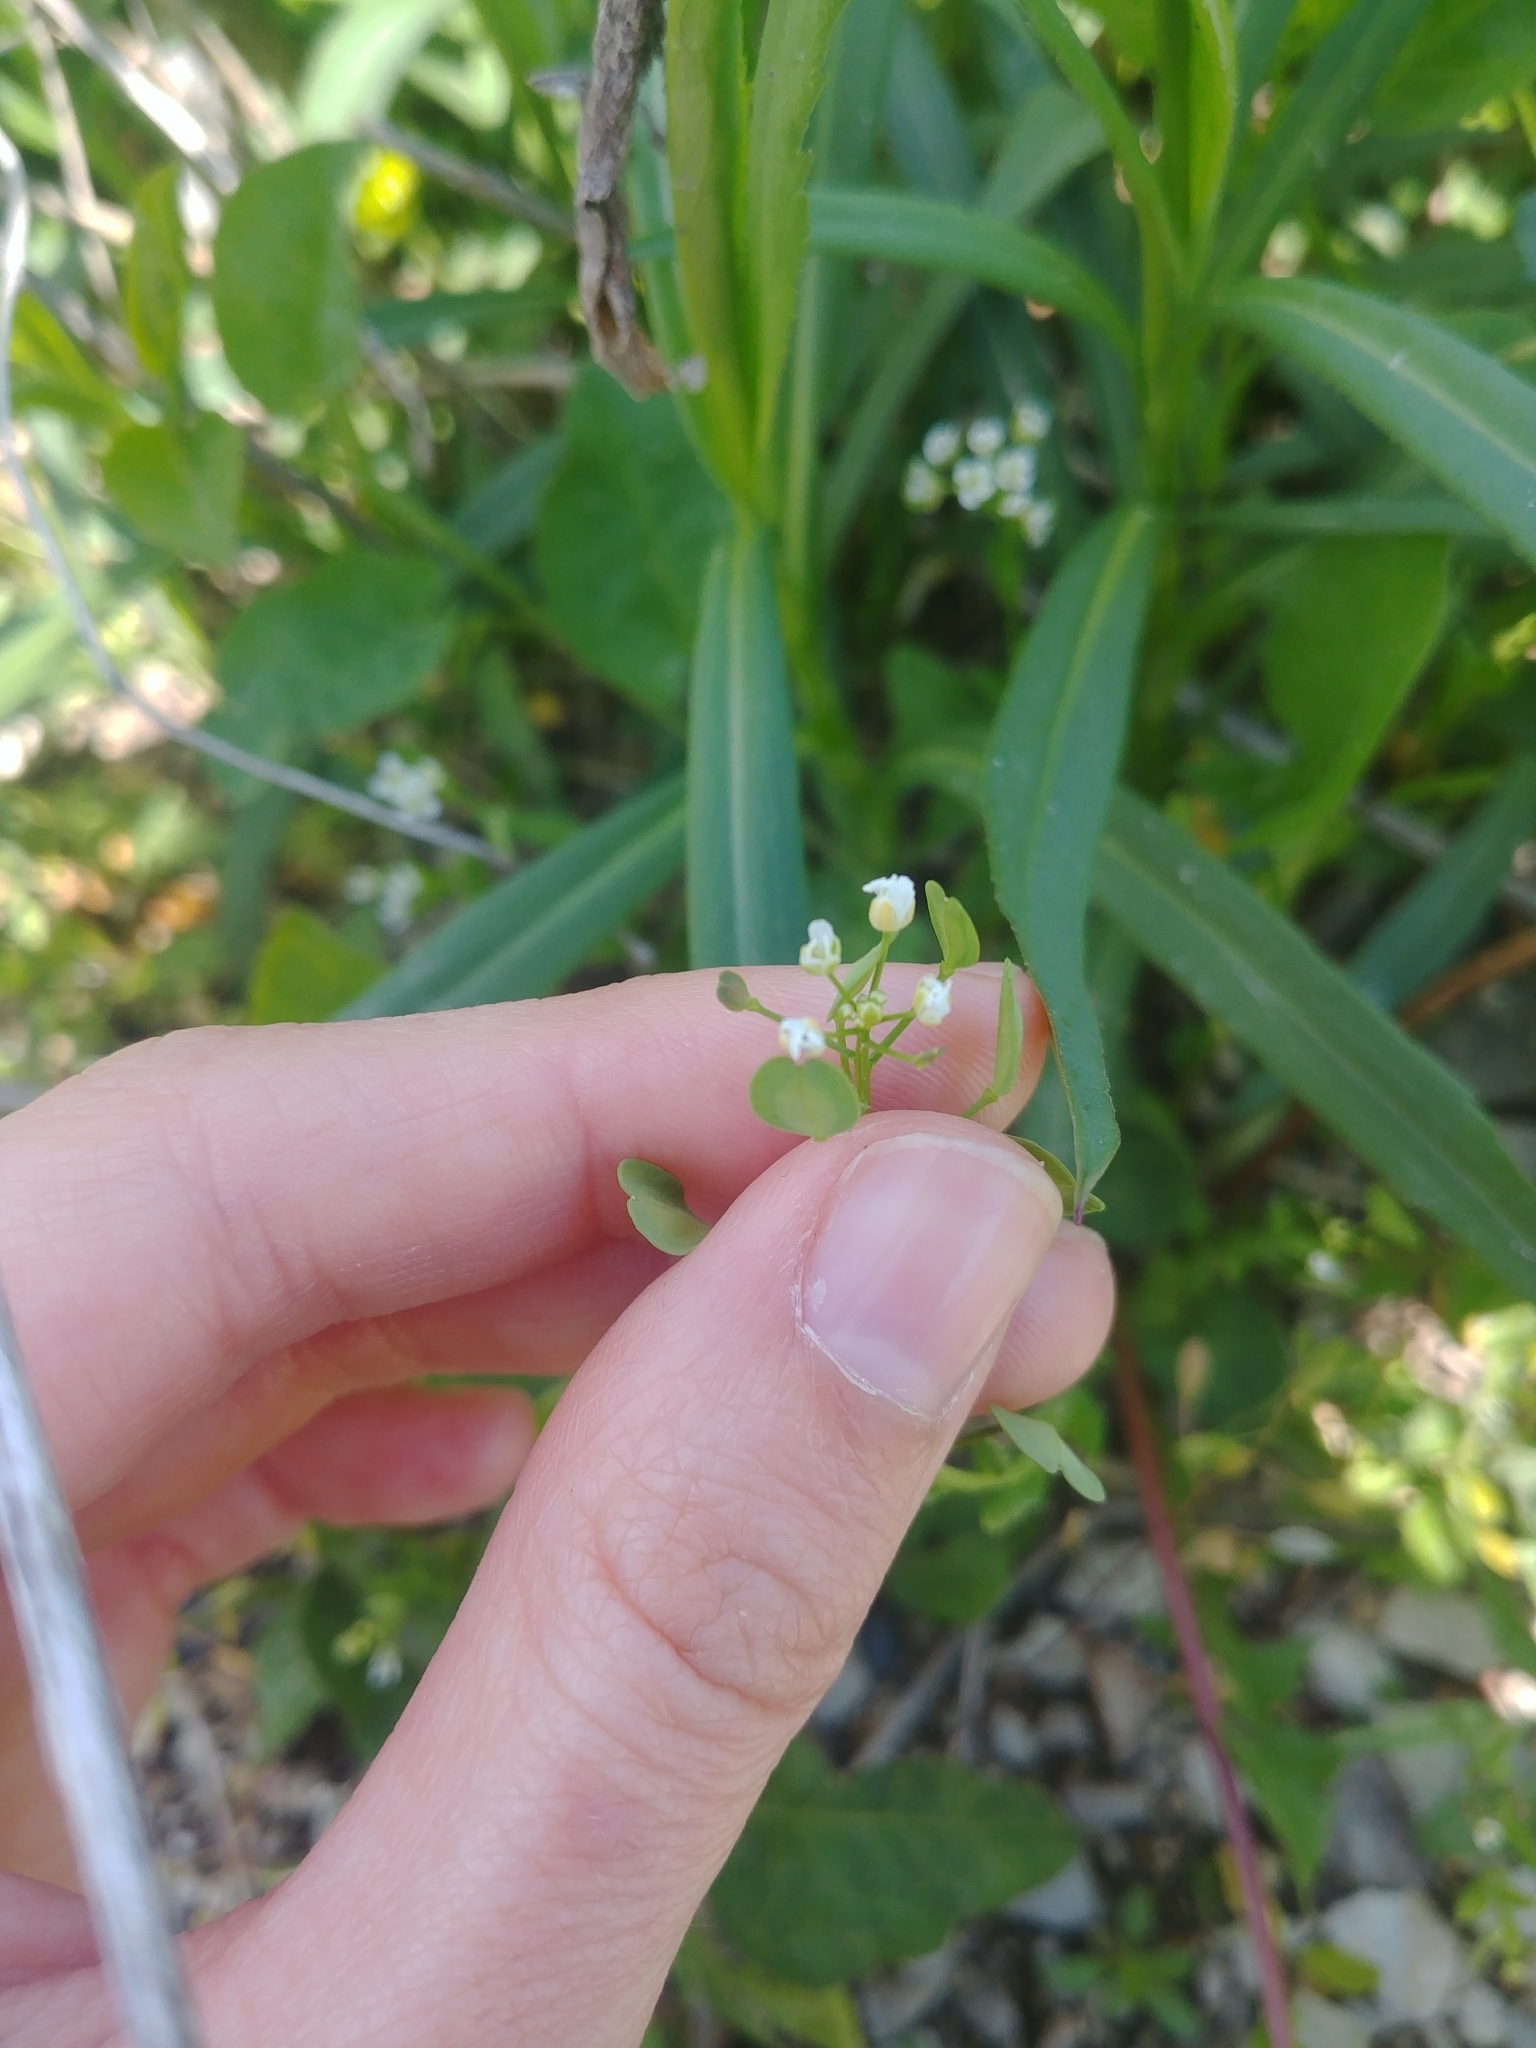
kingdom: Plantae
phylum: Tracheophyta
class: Magnoliopsida
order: Brassicales
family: Brassicaceae
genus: Thlaspi
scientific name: Thlaspi arvense
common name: Field pennycress
